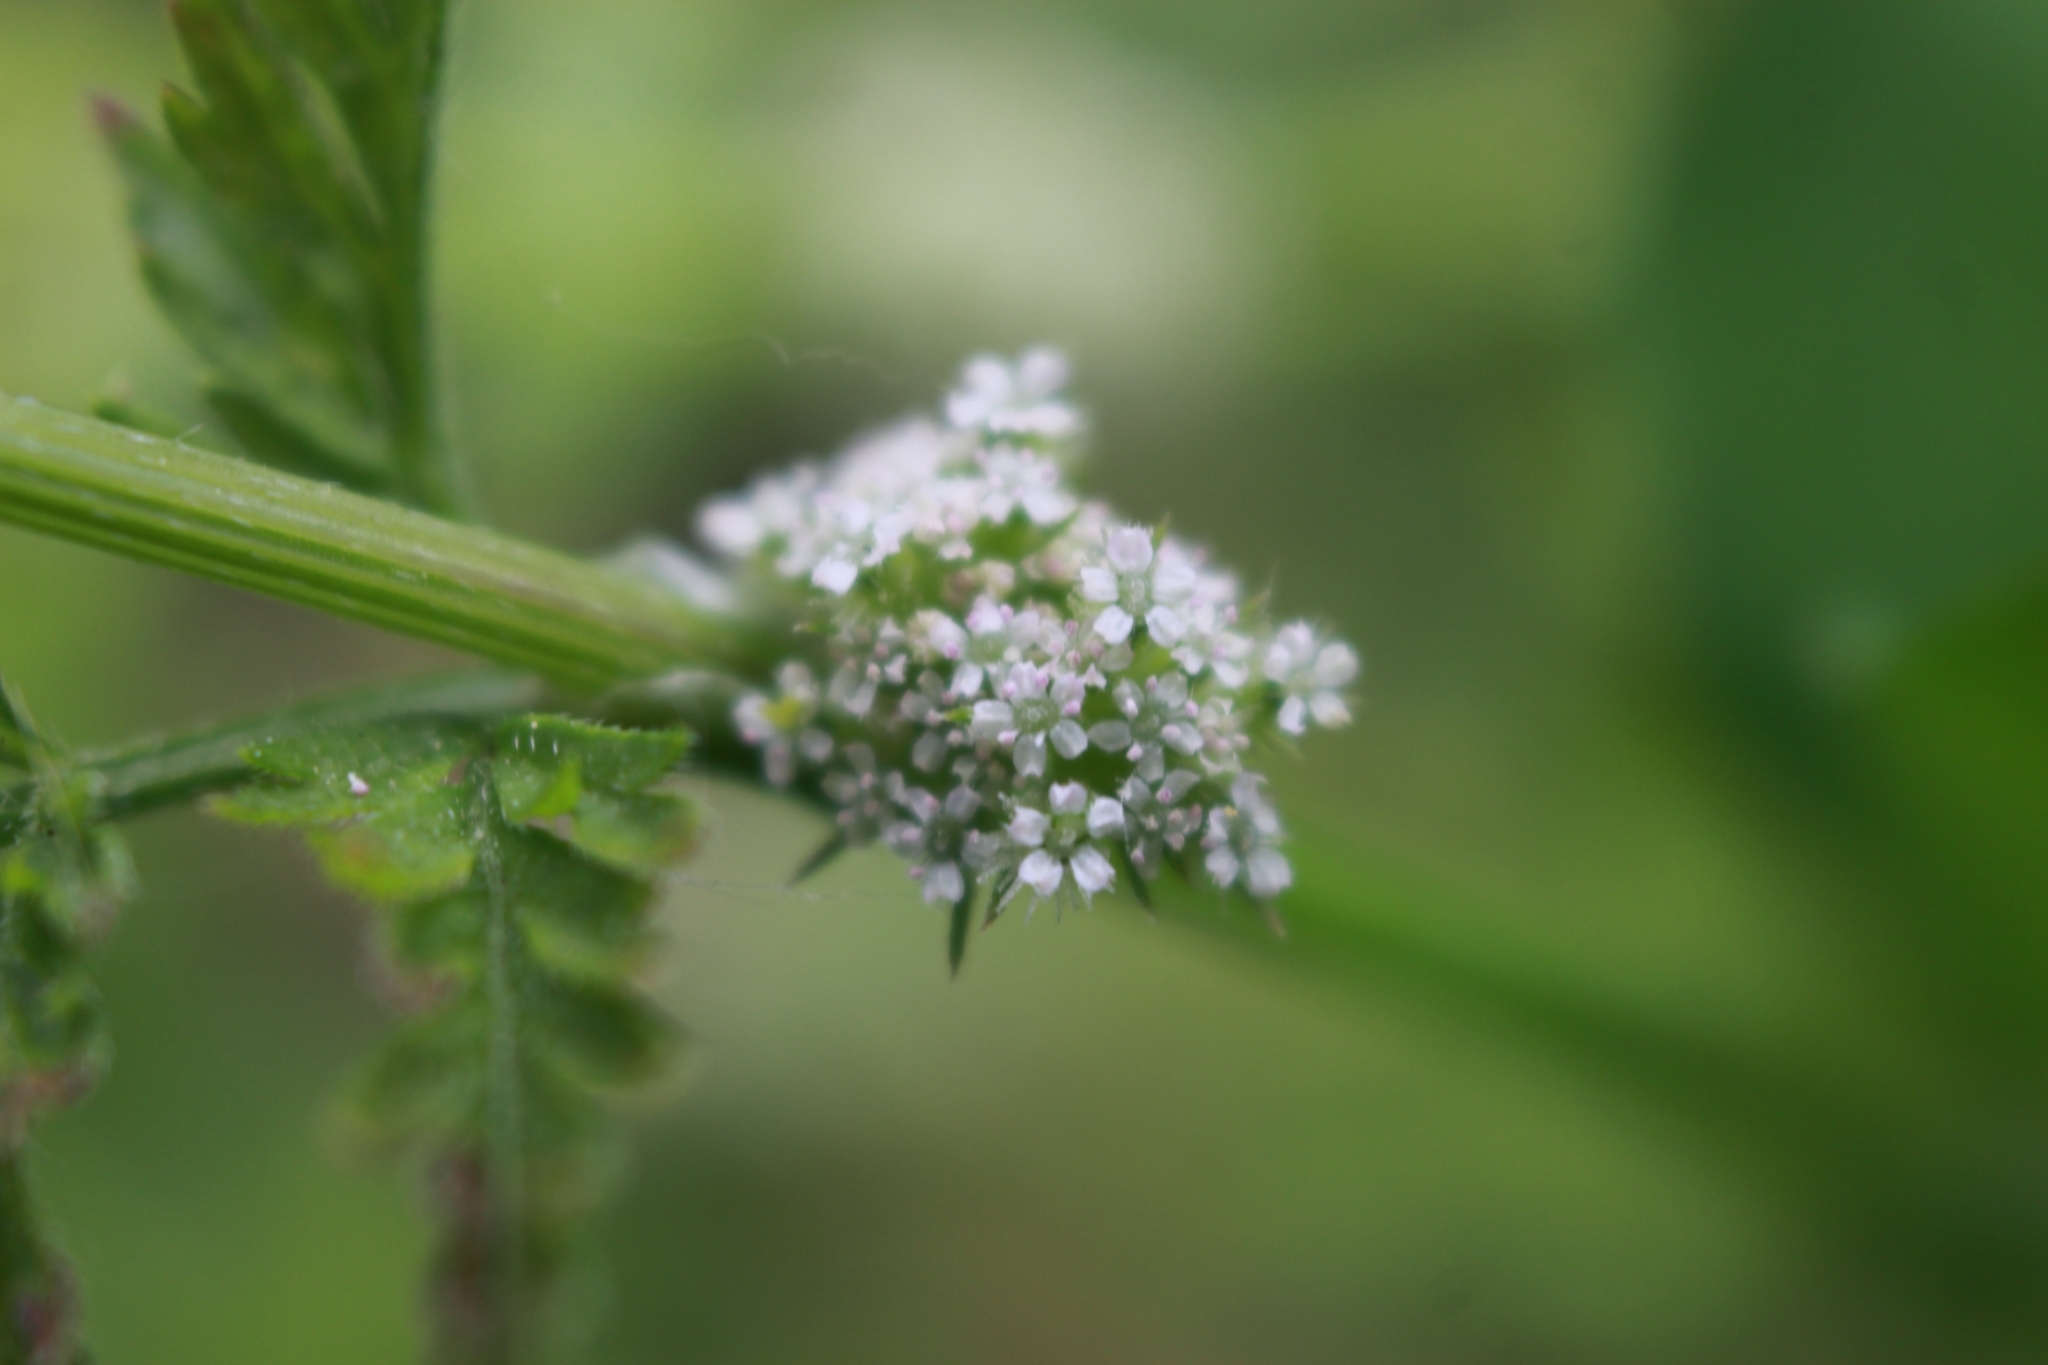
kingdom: Plantae
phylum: Tracheophyta
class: Magnoliopsida
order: Apiales
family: Apiaceae
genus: Torilis
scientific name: Torilis nodosa
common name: Knotted hedge-parsley
